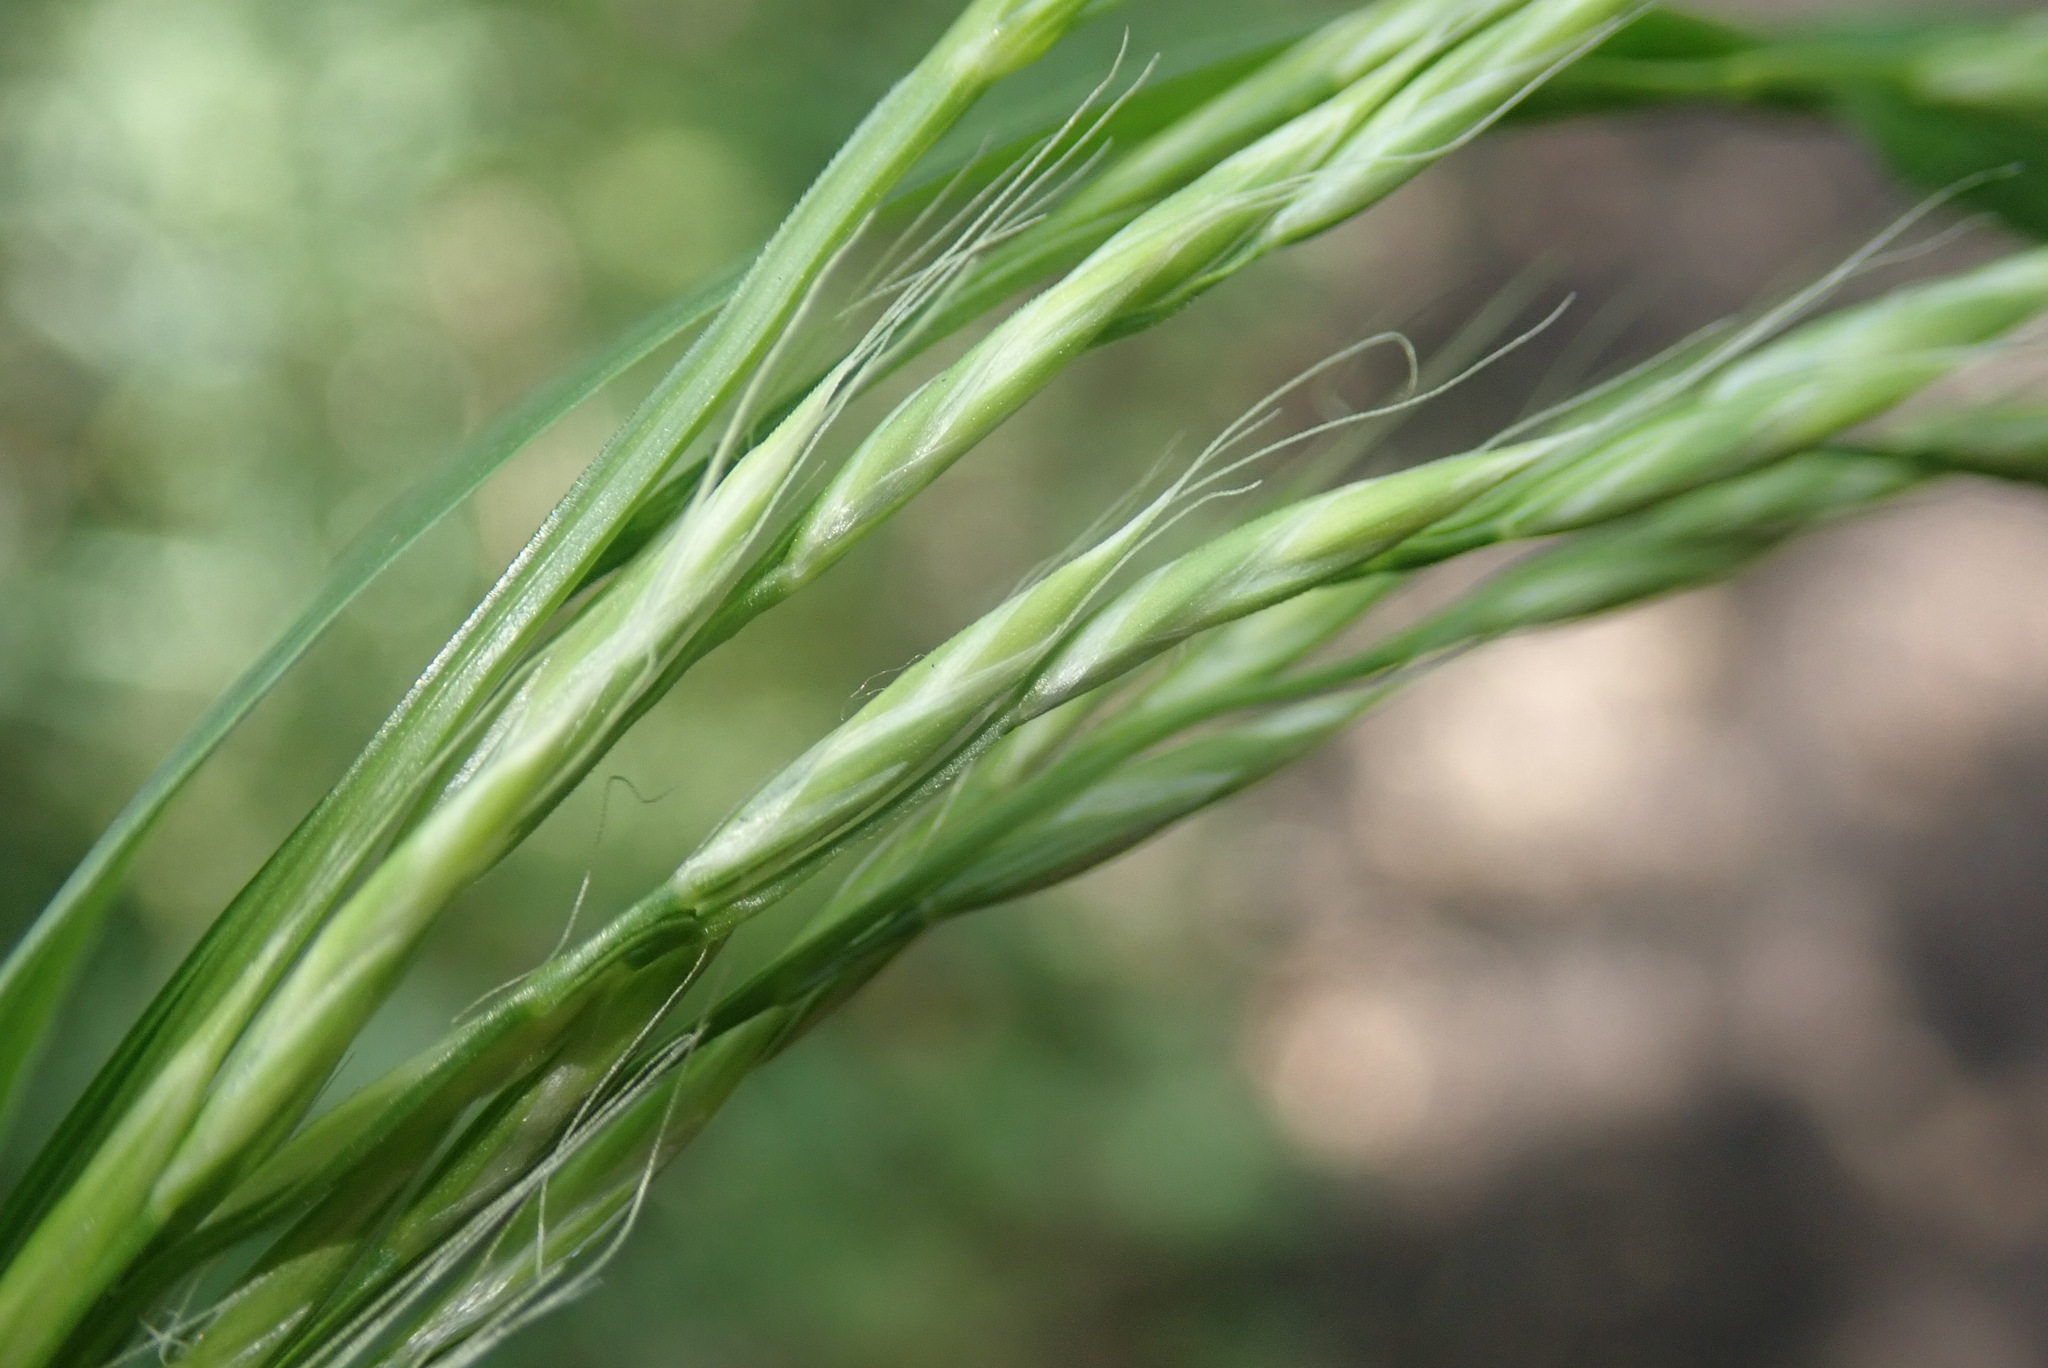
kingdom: Plantae
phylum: Tracheophyta
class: Liliopsida
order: Poales
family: Poaceae
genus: Lolium
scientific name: Lolium giganteum
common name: Giant fescue
